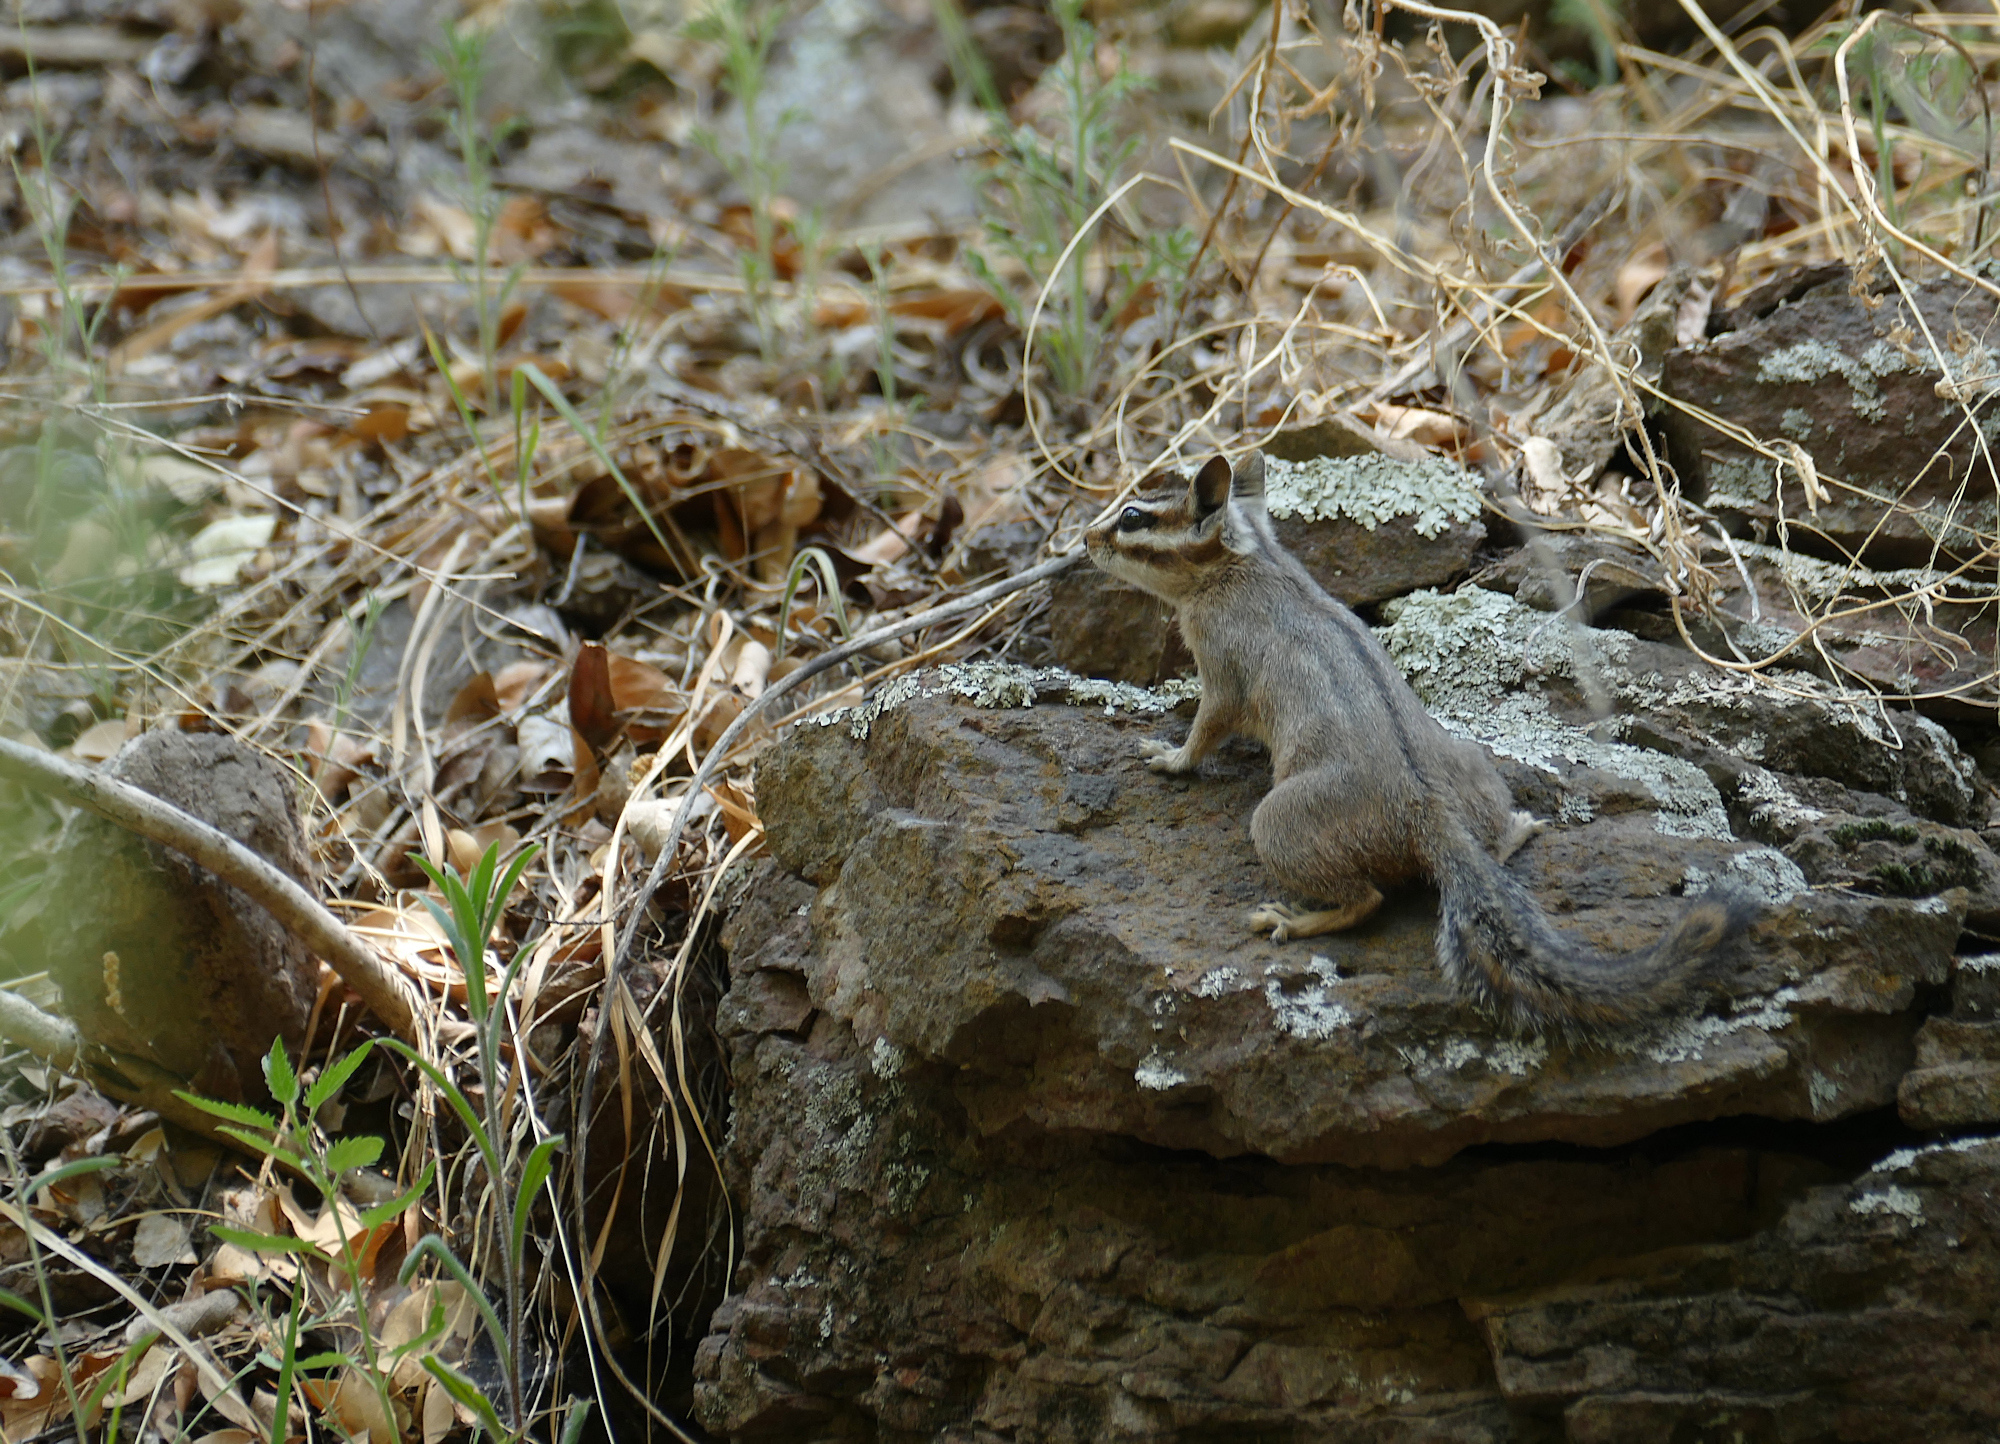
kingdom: Animalia
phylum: Chordata
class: Mammalia
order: Rodentia
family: Sciuridae
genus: Tamias
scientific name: Tamias dorsalis
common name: Cliff chipmunk
